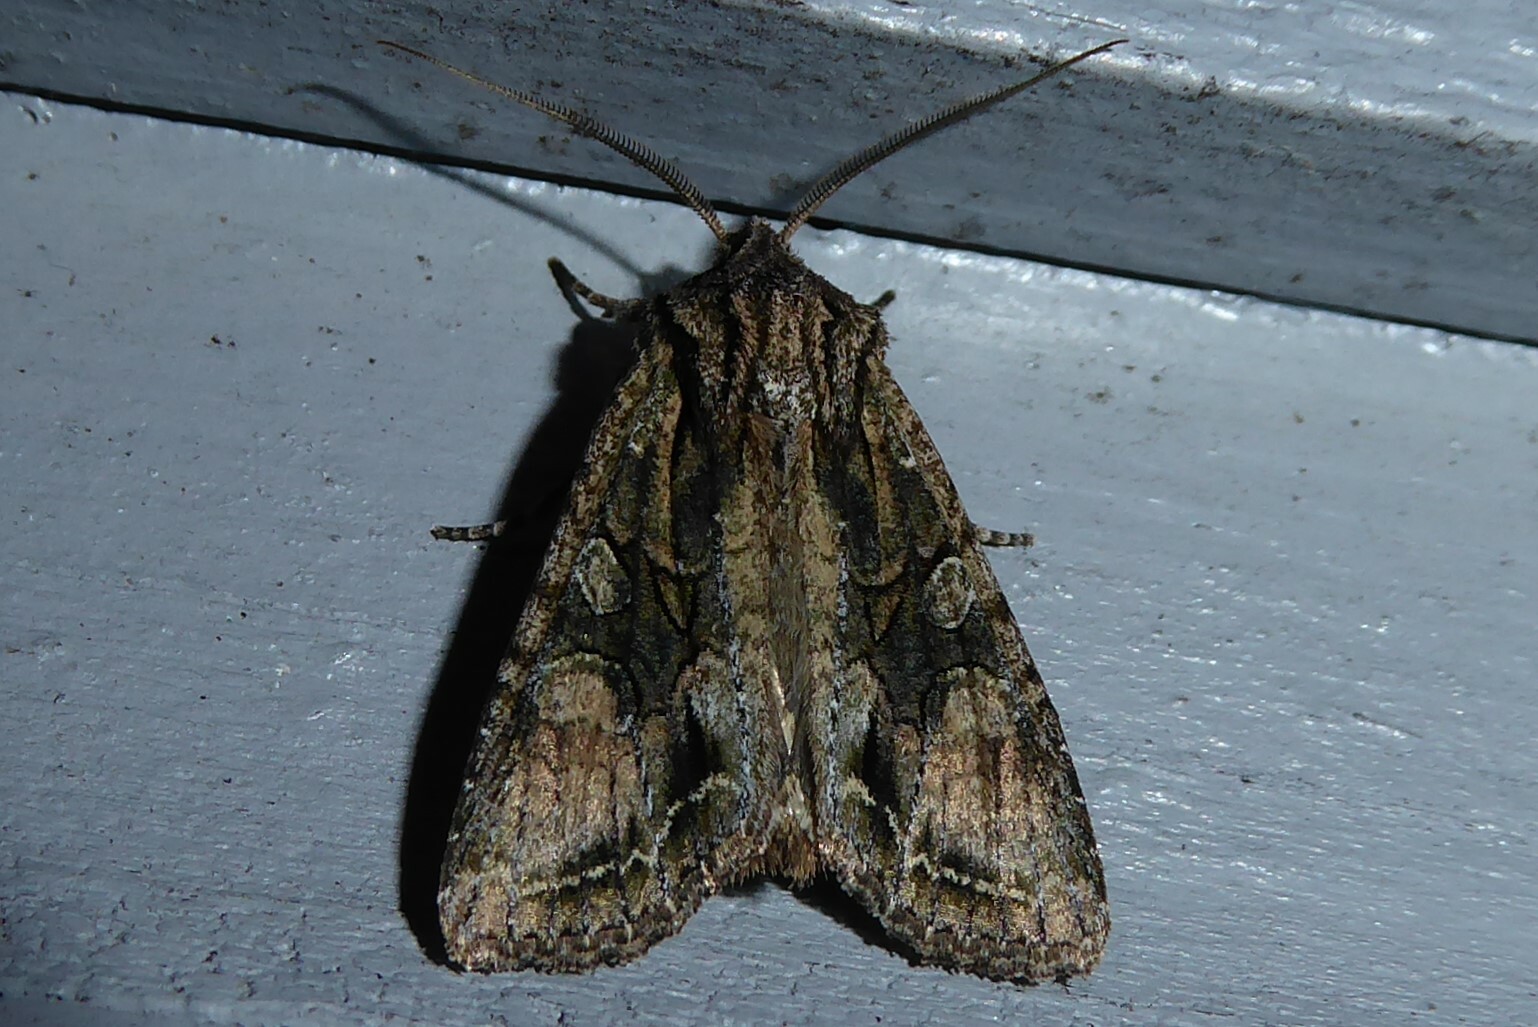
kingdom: Animalia
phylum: Arthropoda
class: Insecta
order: Lepidoptera
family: Noctuidae
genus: Ichneutica
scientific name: Ichneutica mutans
